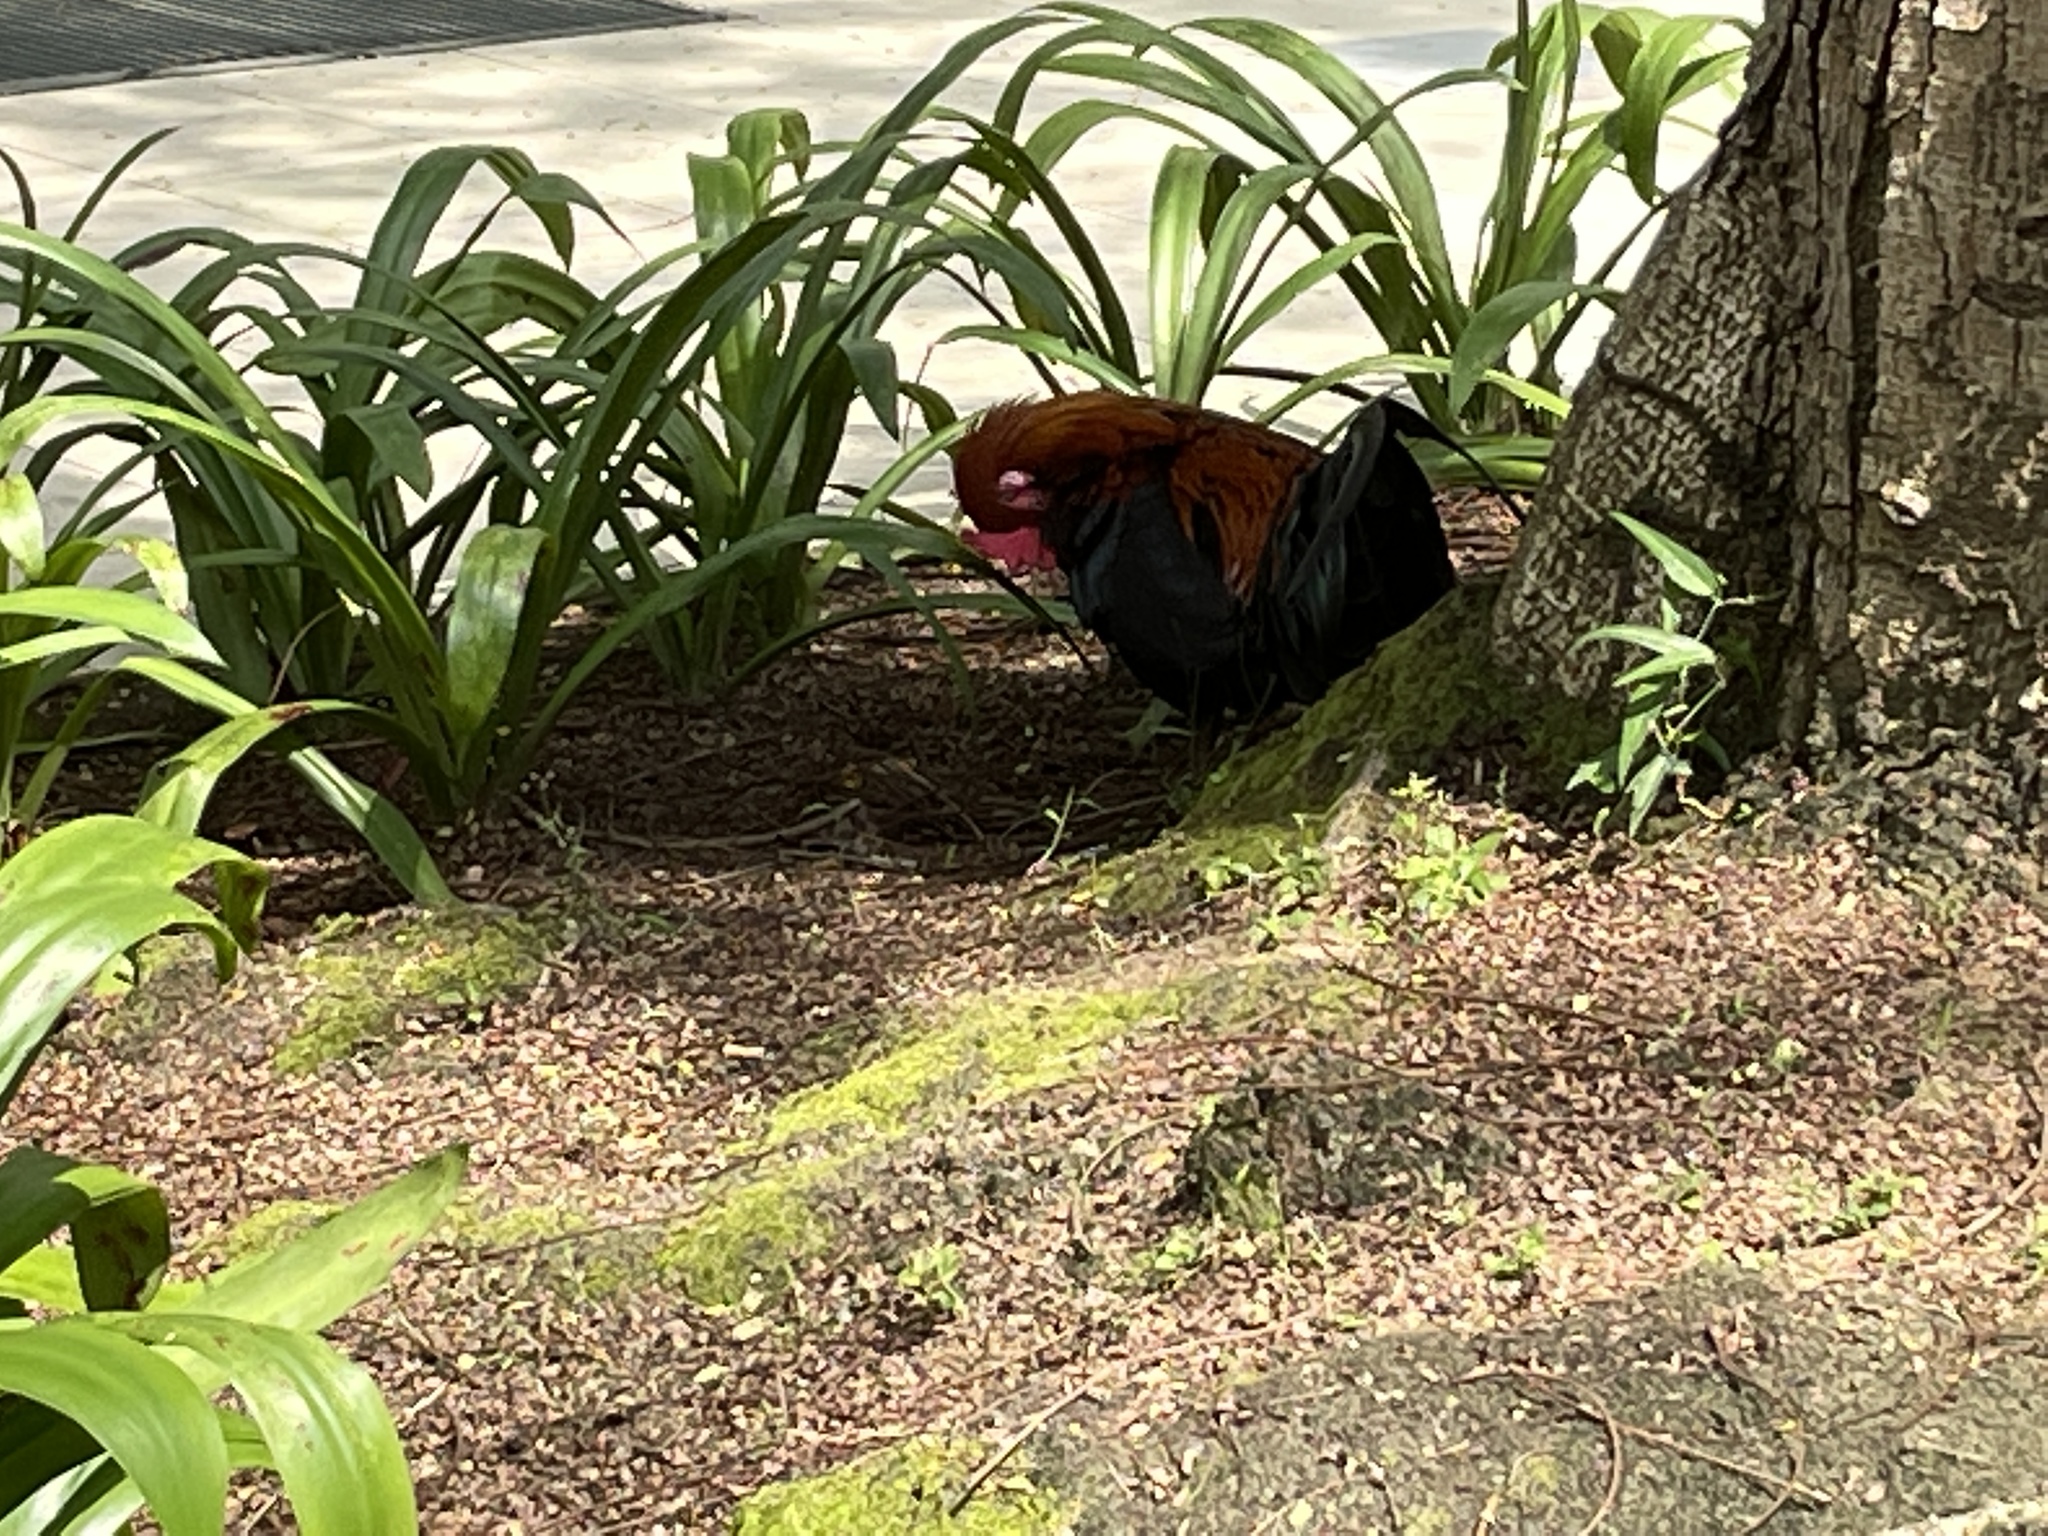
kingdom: Animalia
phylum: Chordata
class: Aves
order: Galliformes
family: Phasianidae
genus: Gallus
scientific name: Gallus gallus
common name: Red junglefowl
